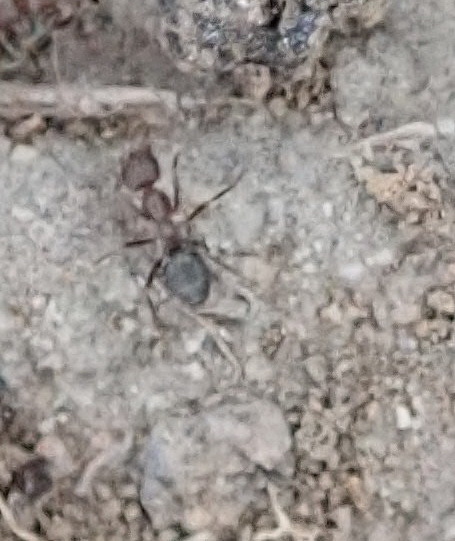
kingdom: Animalia
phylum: Arthropoda
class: Insecta
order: Hymenoptera
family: Formicidae
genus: Anoplolepis
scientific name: Anoplolepis steingroeveri
